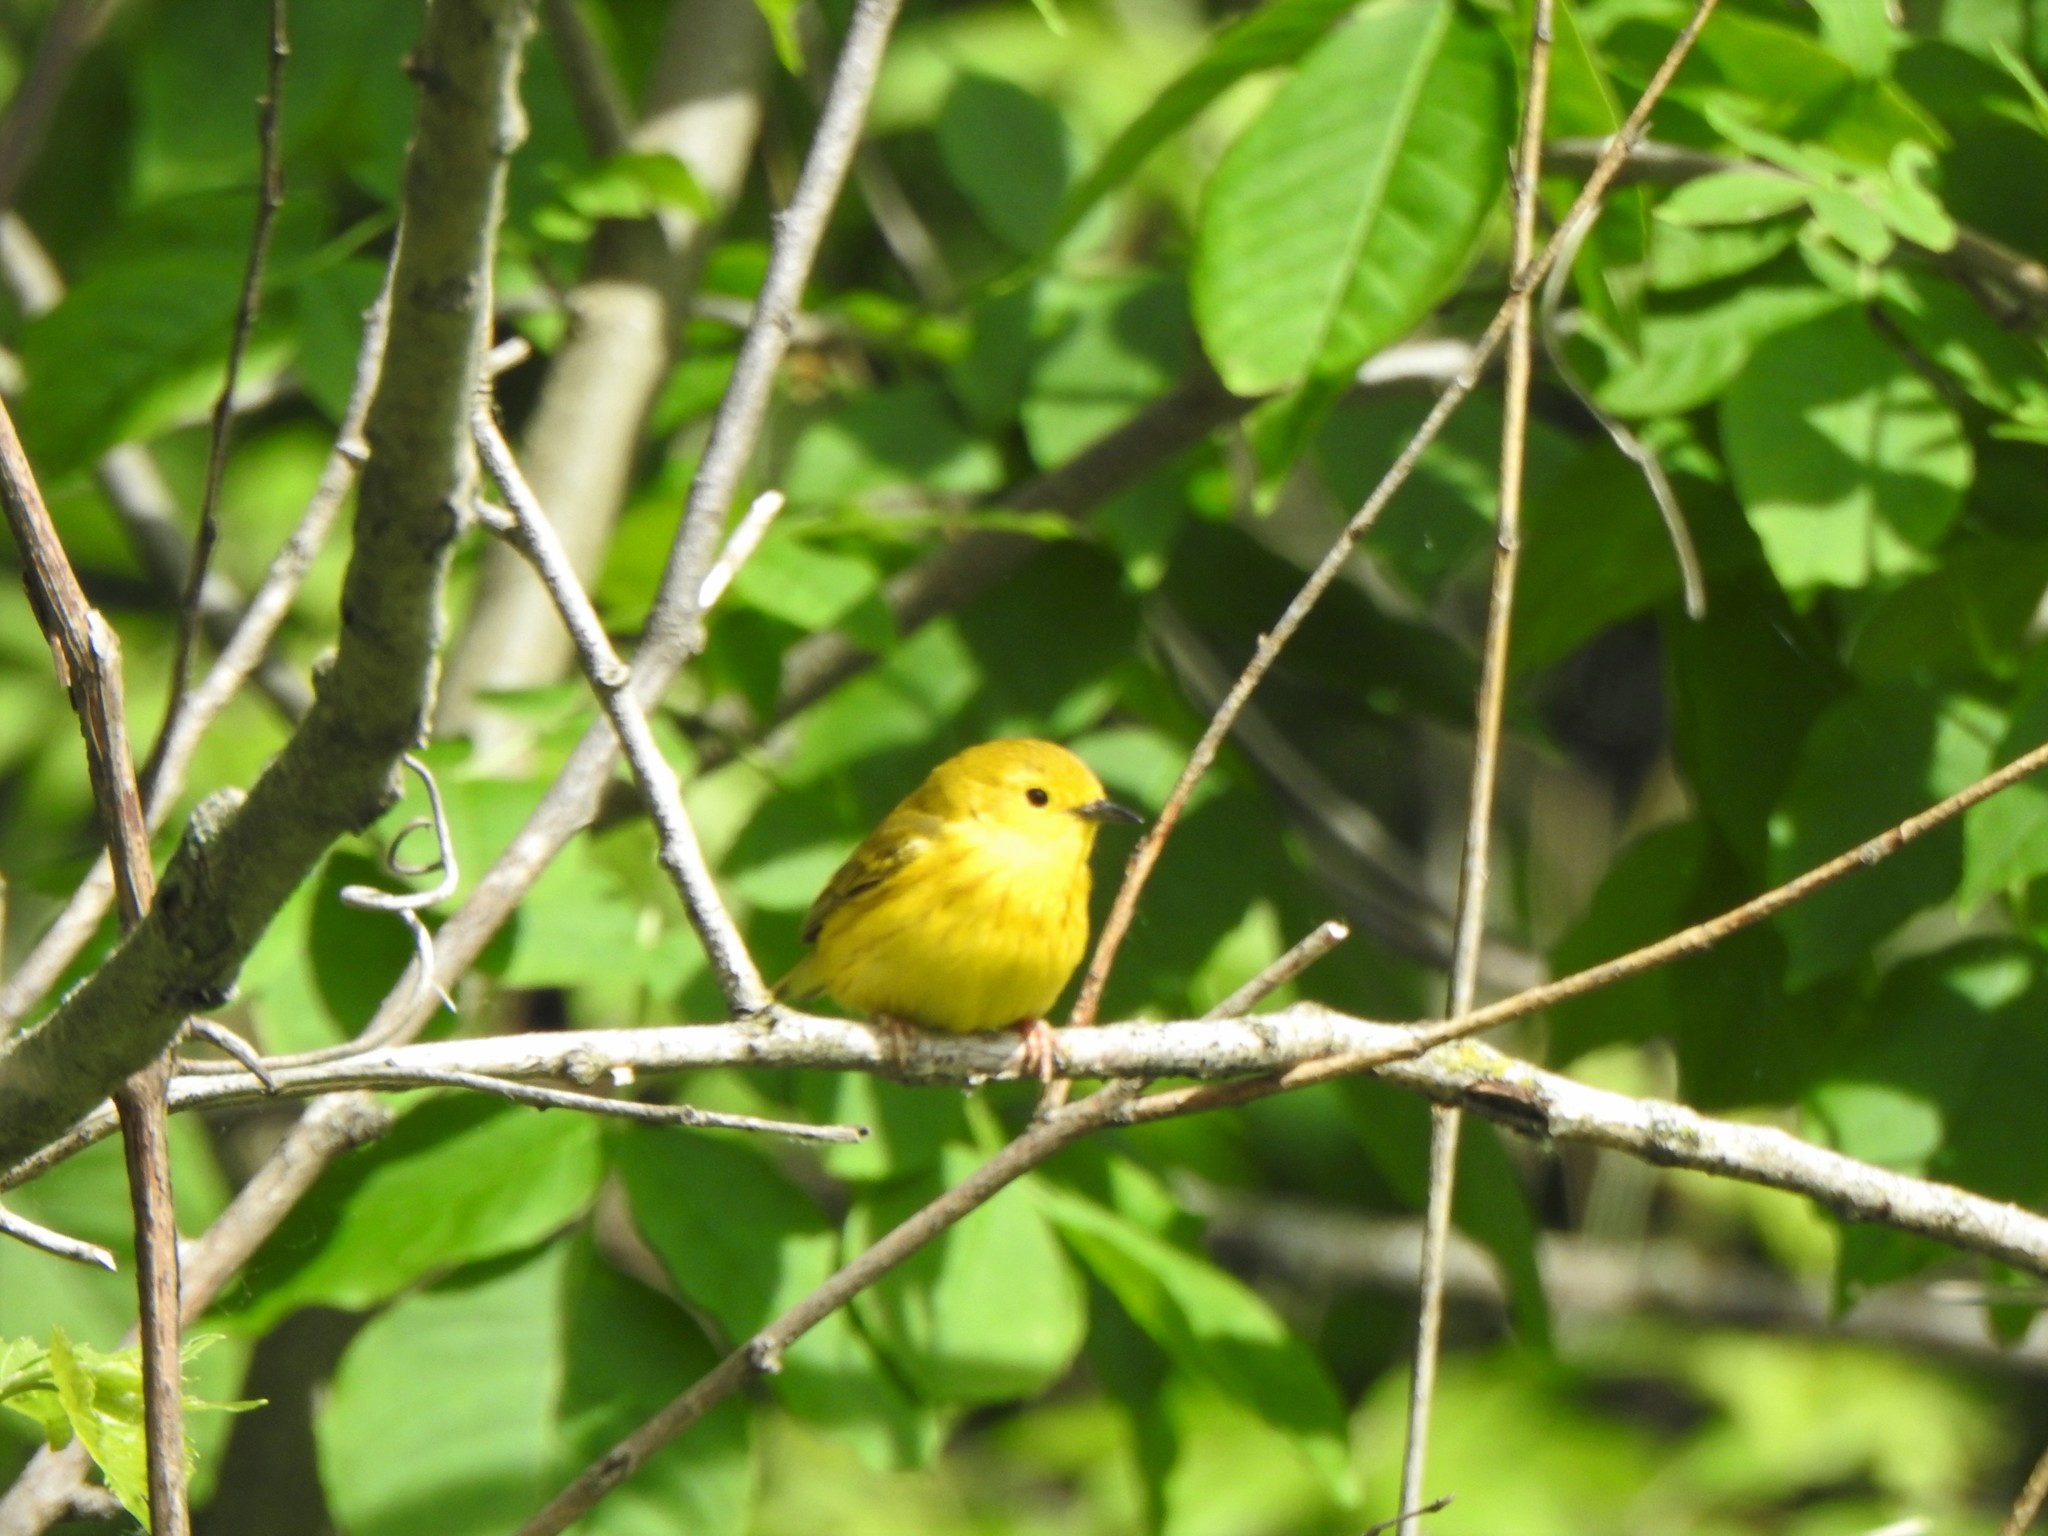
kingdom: Animalia
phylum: Chordata
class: Aves
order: Passeriformes
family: Parulidae
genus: Setophaga
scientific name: Setophaga petechia
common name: Yellow warbler
